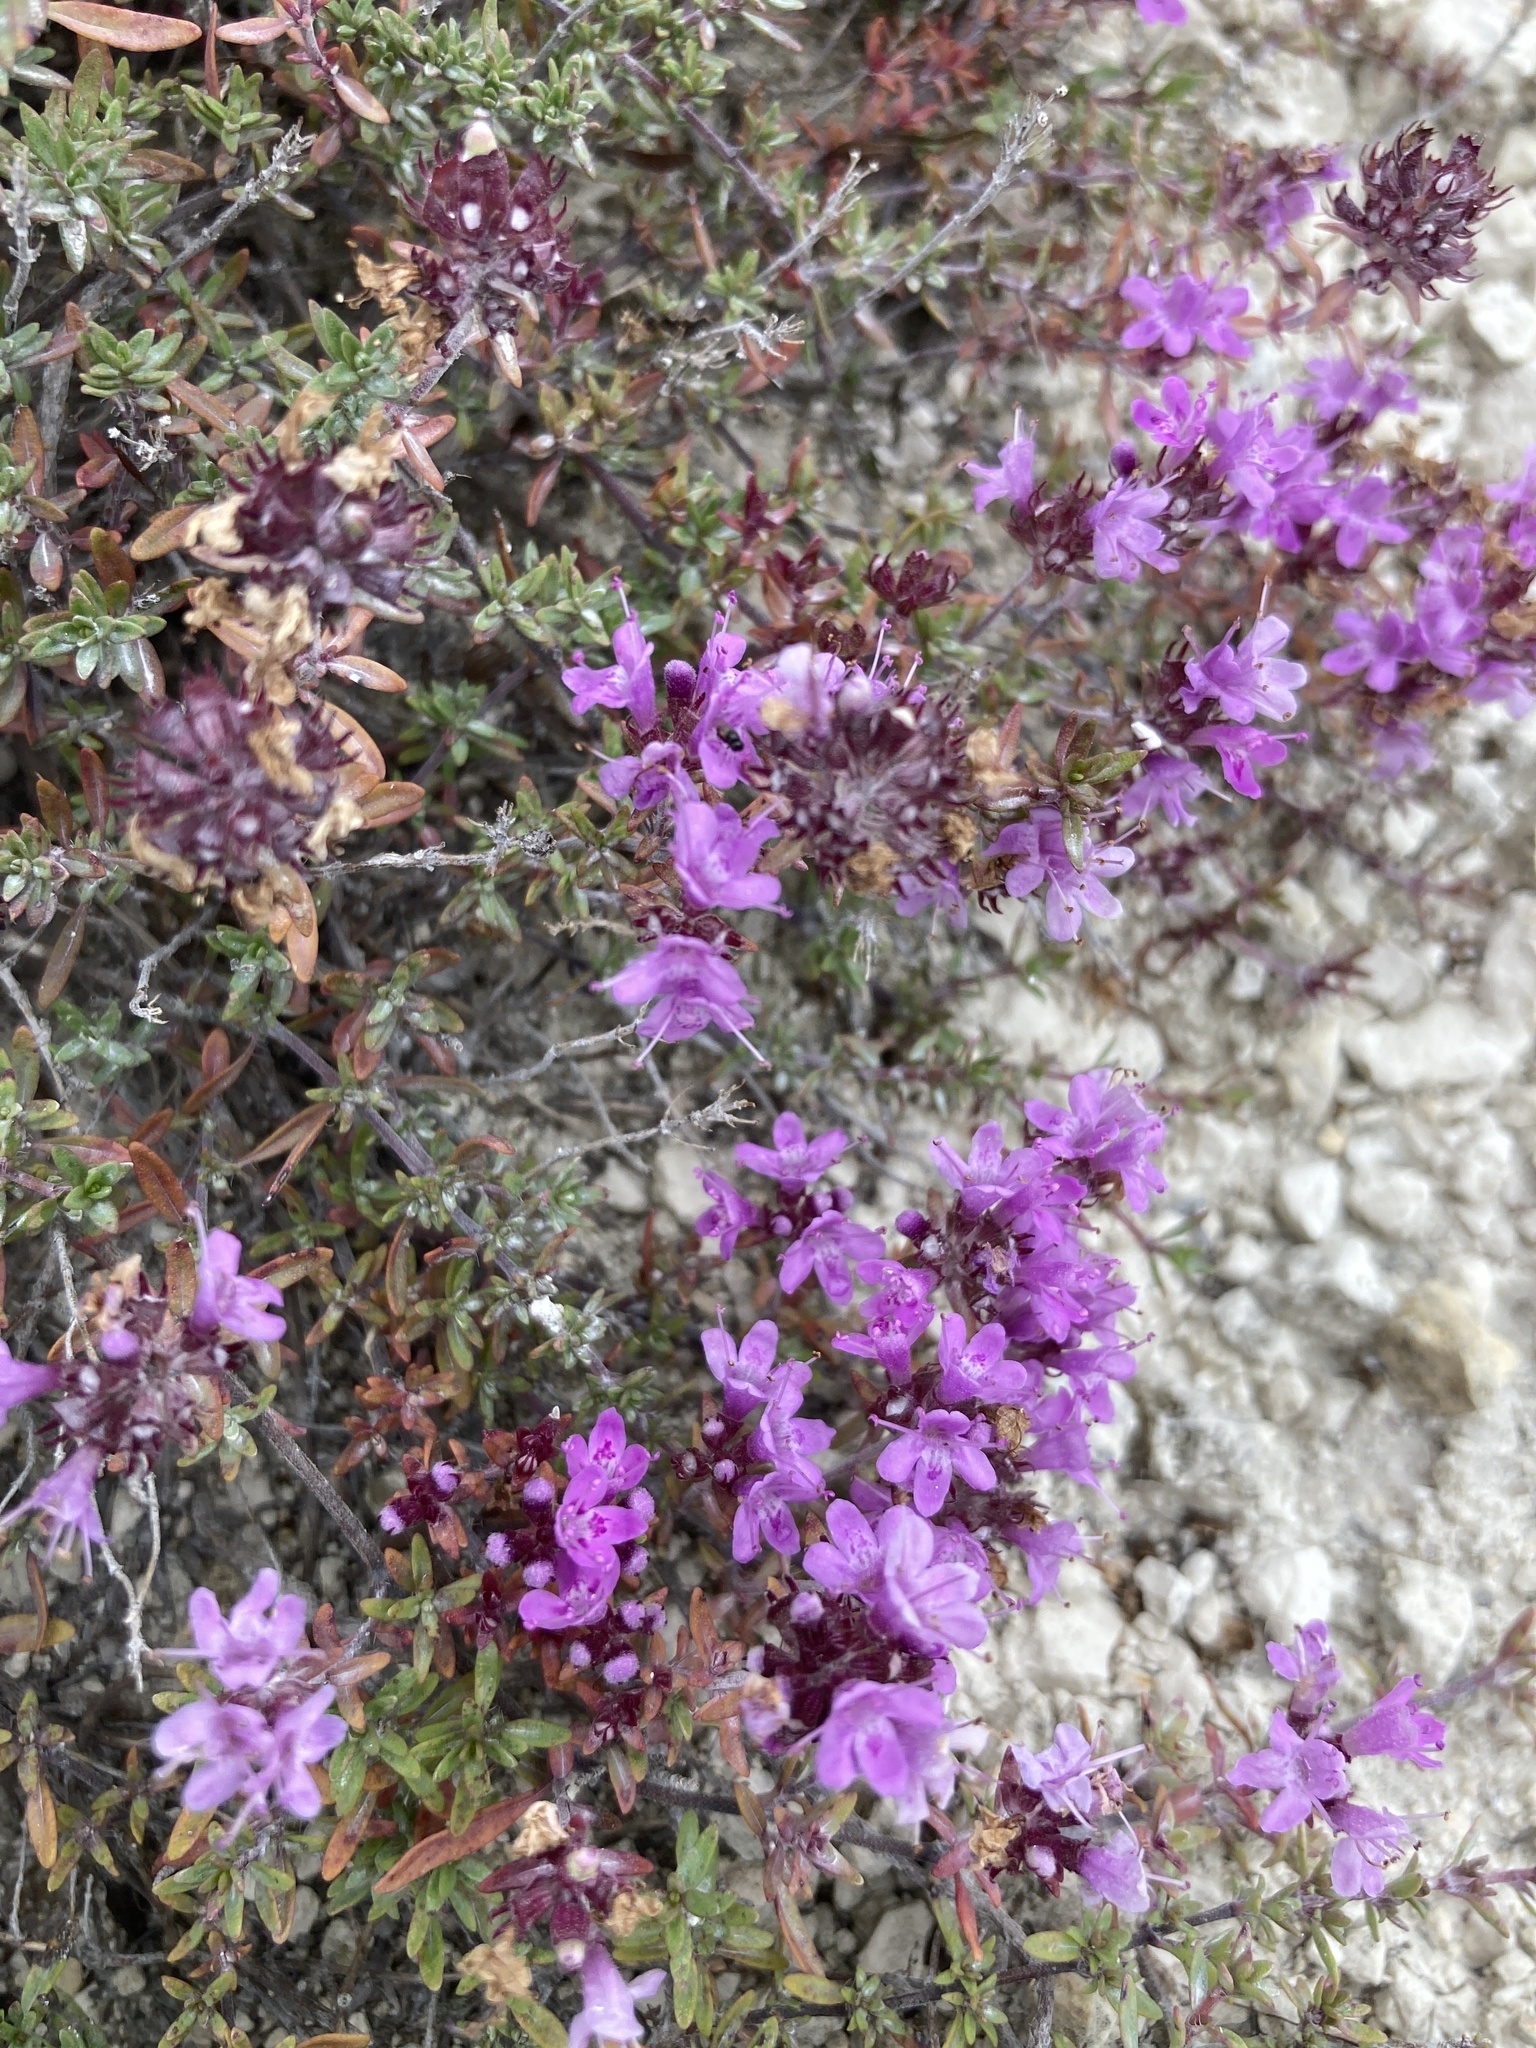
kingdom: Plantae
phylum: Tracheophyta
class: Magnoliopsida
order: Lamiales
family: Lamiaceae
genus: Thymus
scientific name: Thymus calcareus
